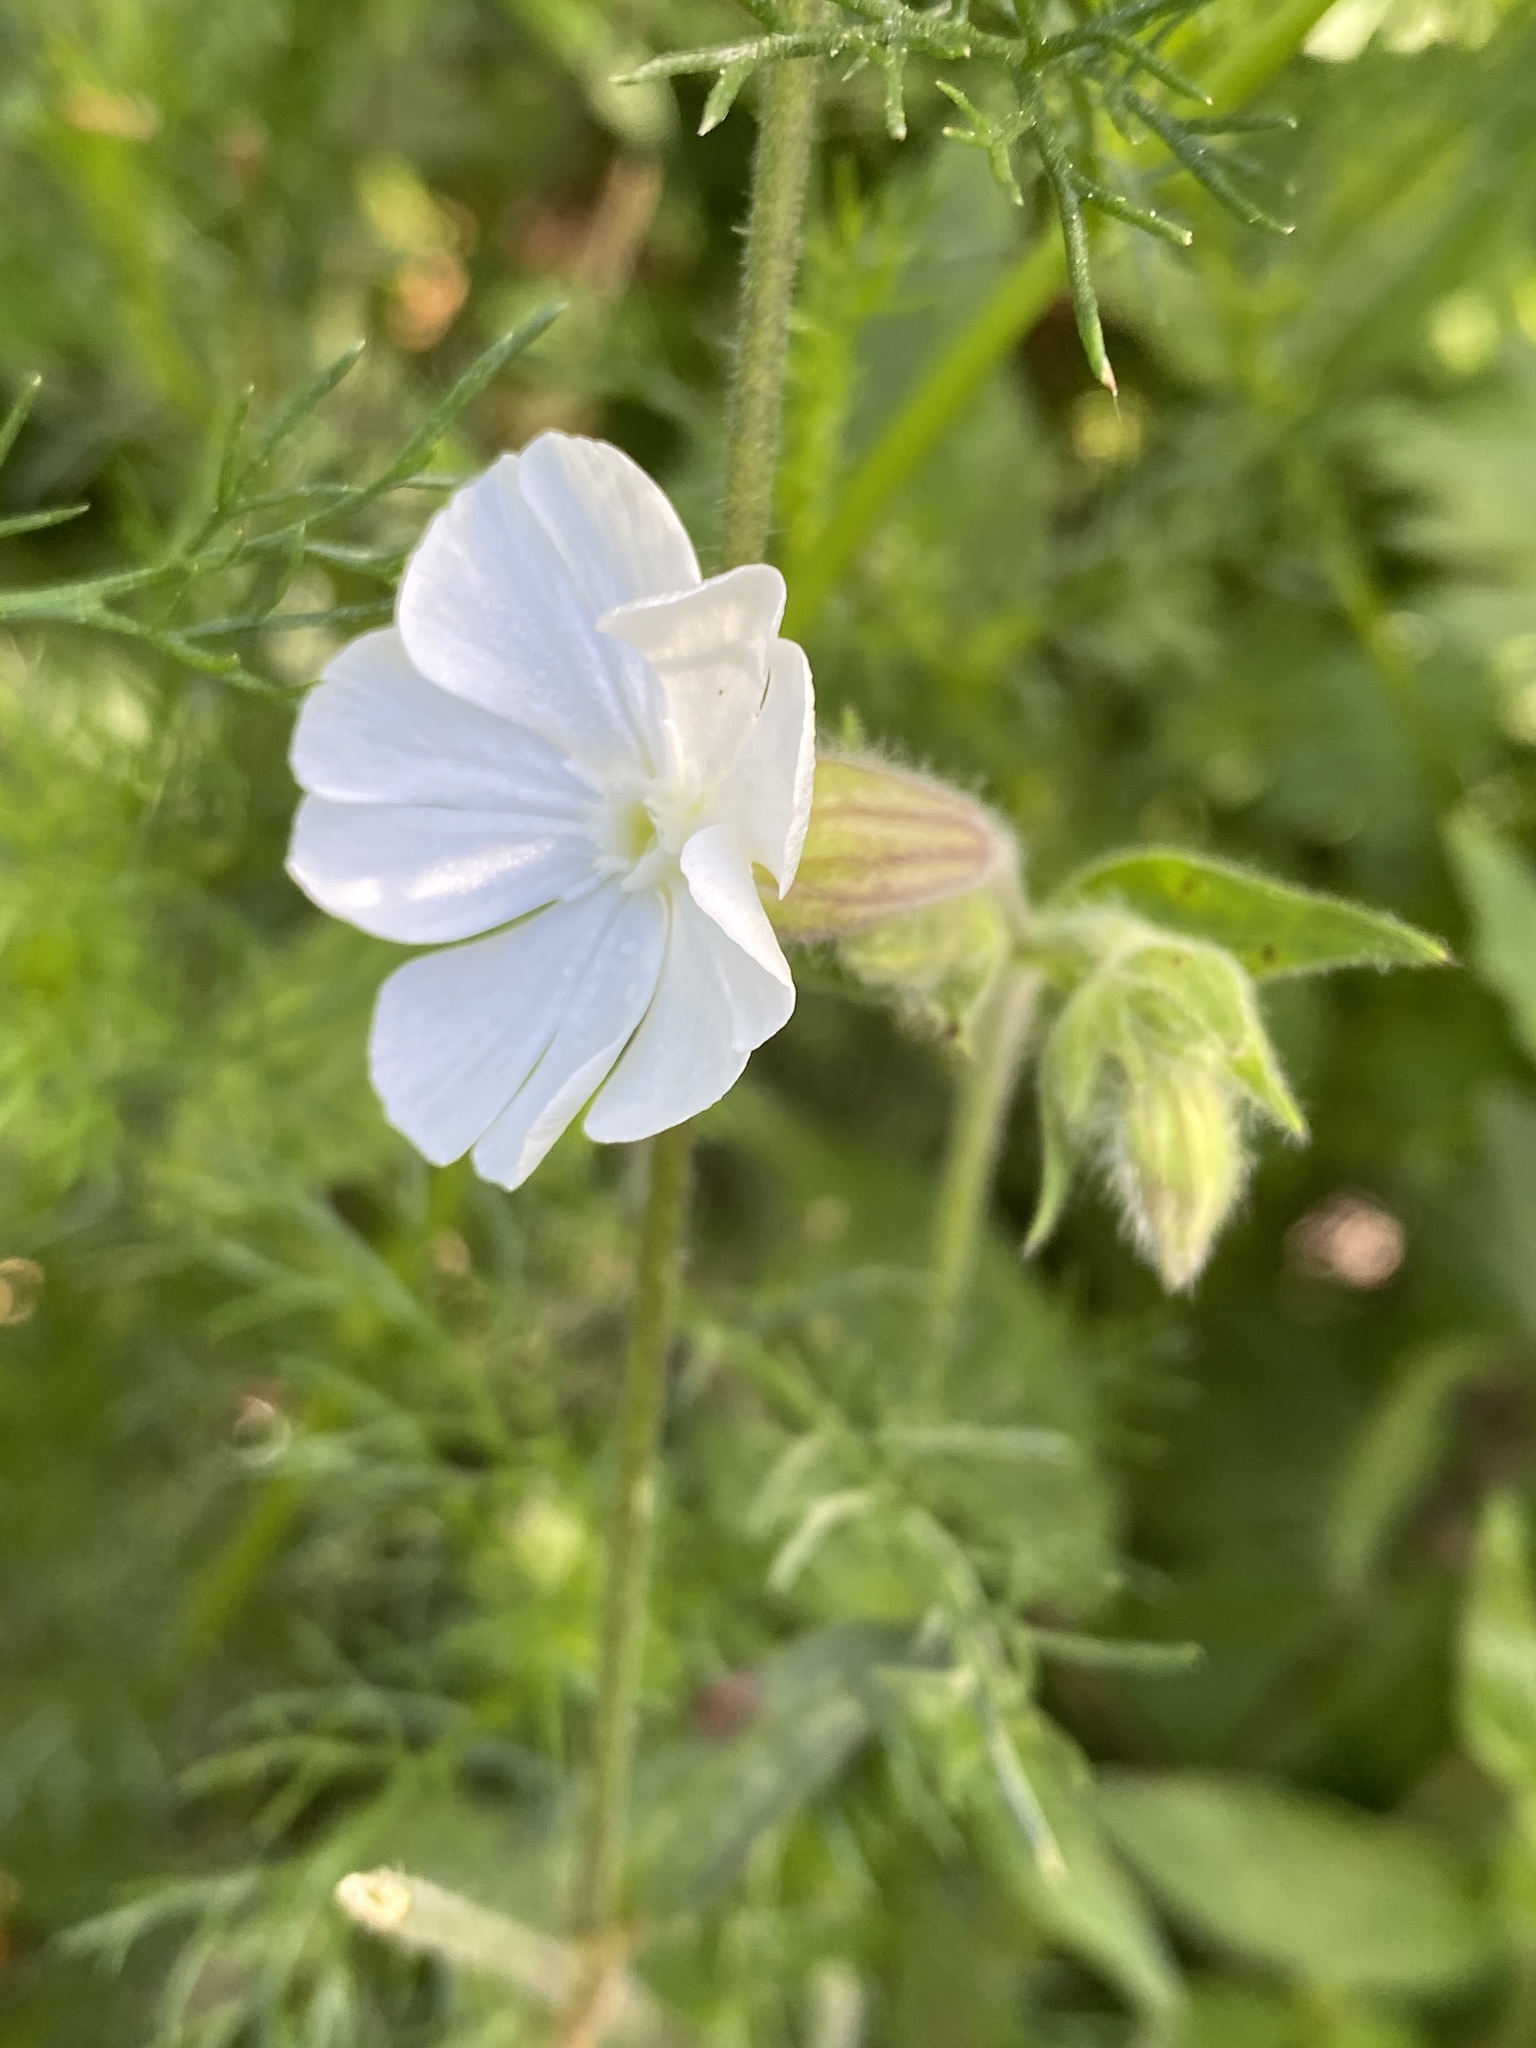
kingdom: Plantae
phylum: Tracheophyta
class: Magnoliopsida
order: Caryophyllales
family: Caryophyllaceae
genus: Silene
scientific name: Silene latifolia
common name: White campion
